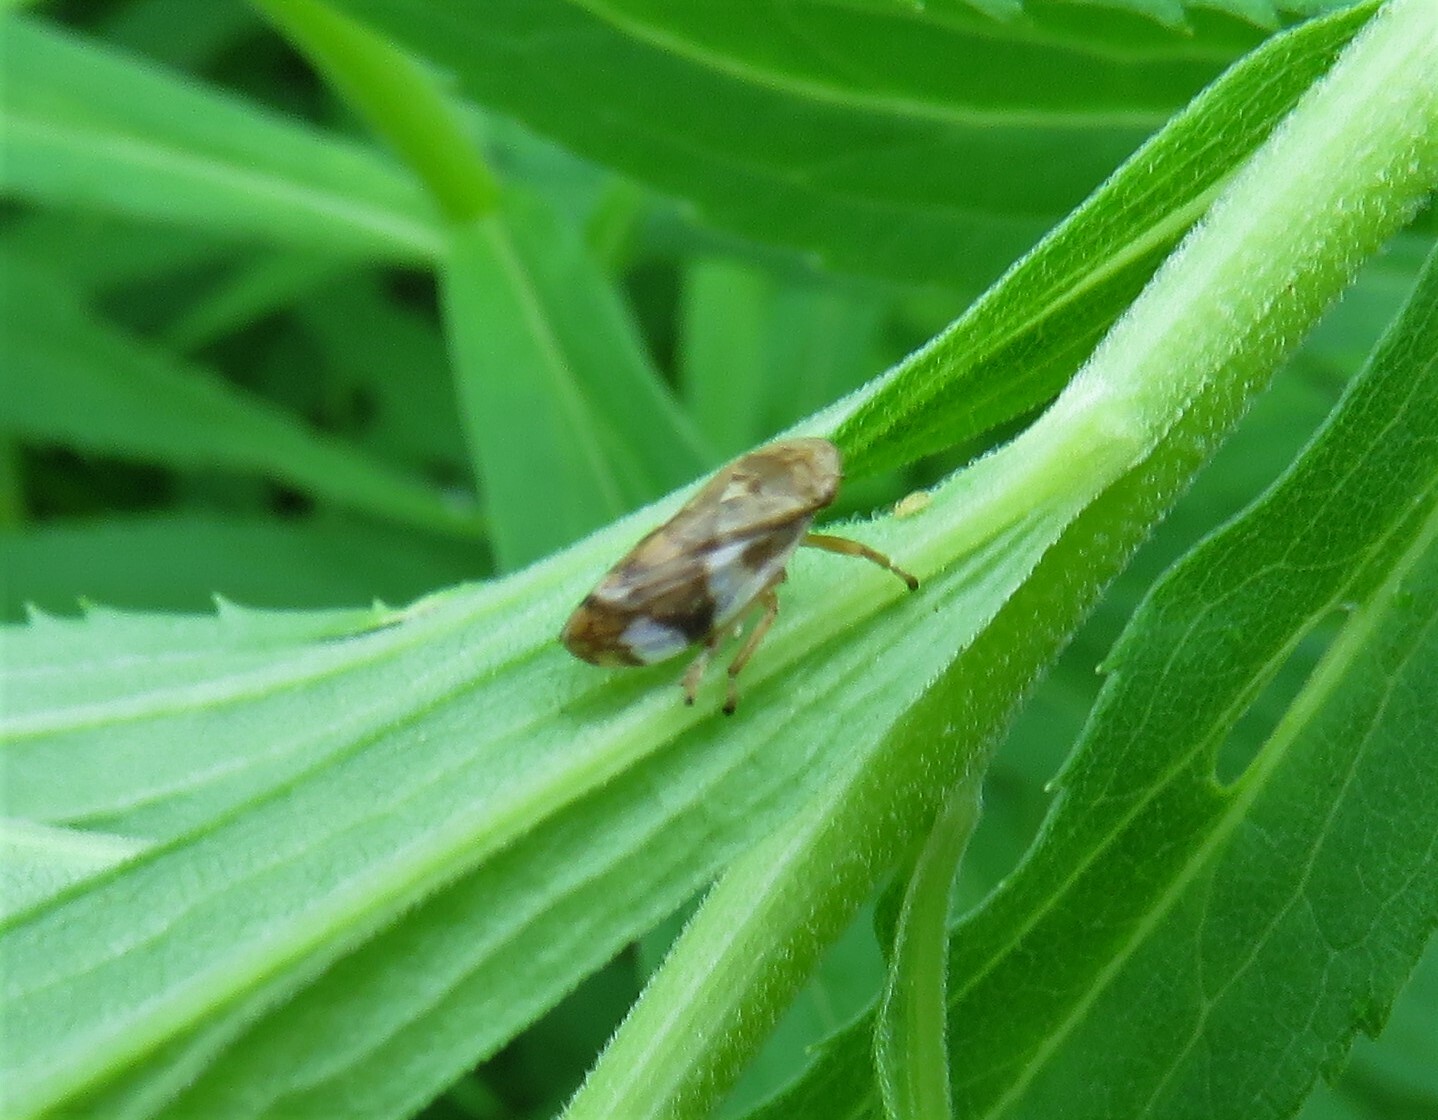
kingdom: Animalia
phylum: Arthropoda
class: Insecta
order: Hemiptera
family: Aphrophoridae
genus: Philaenus
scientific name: Philaenus spumarius
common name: Meadow spittlebug
